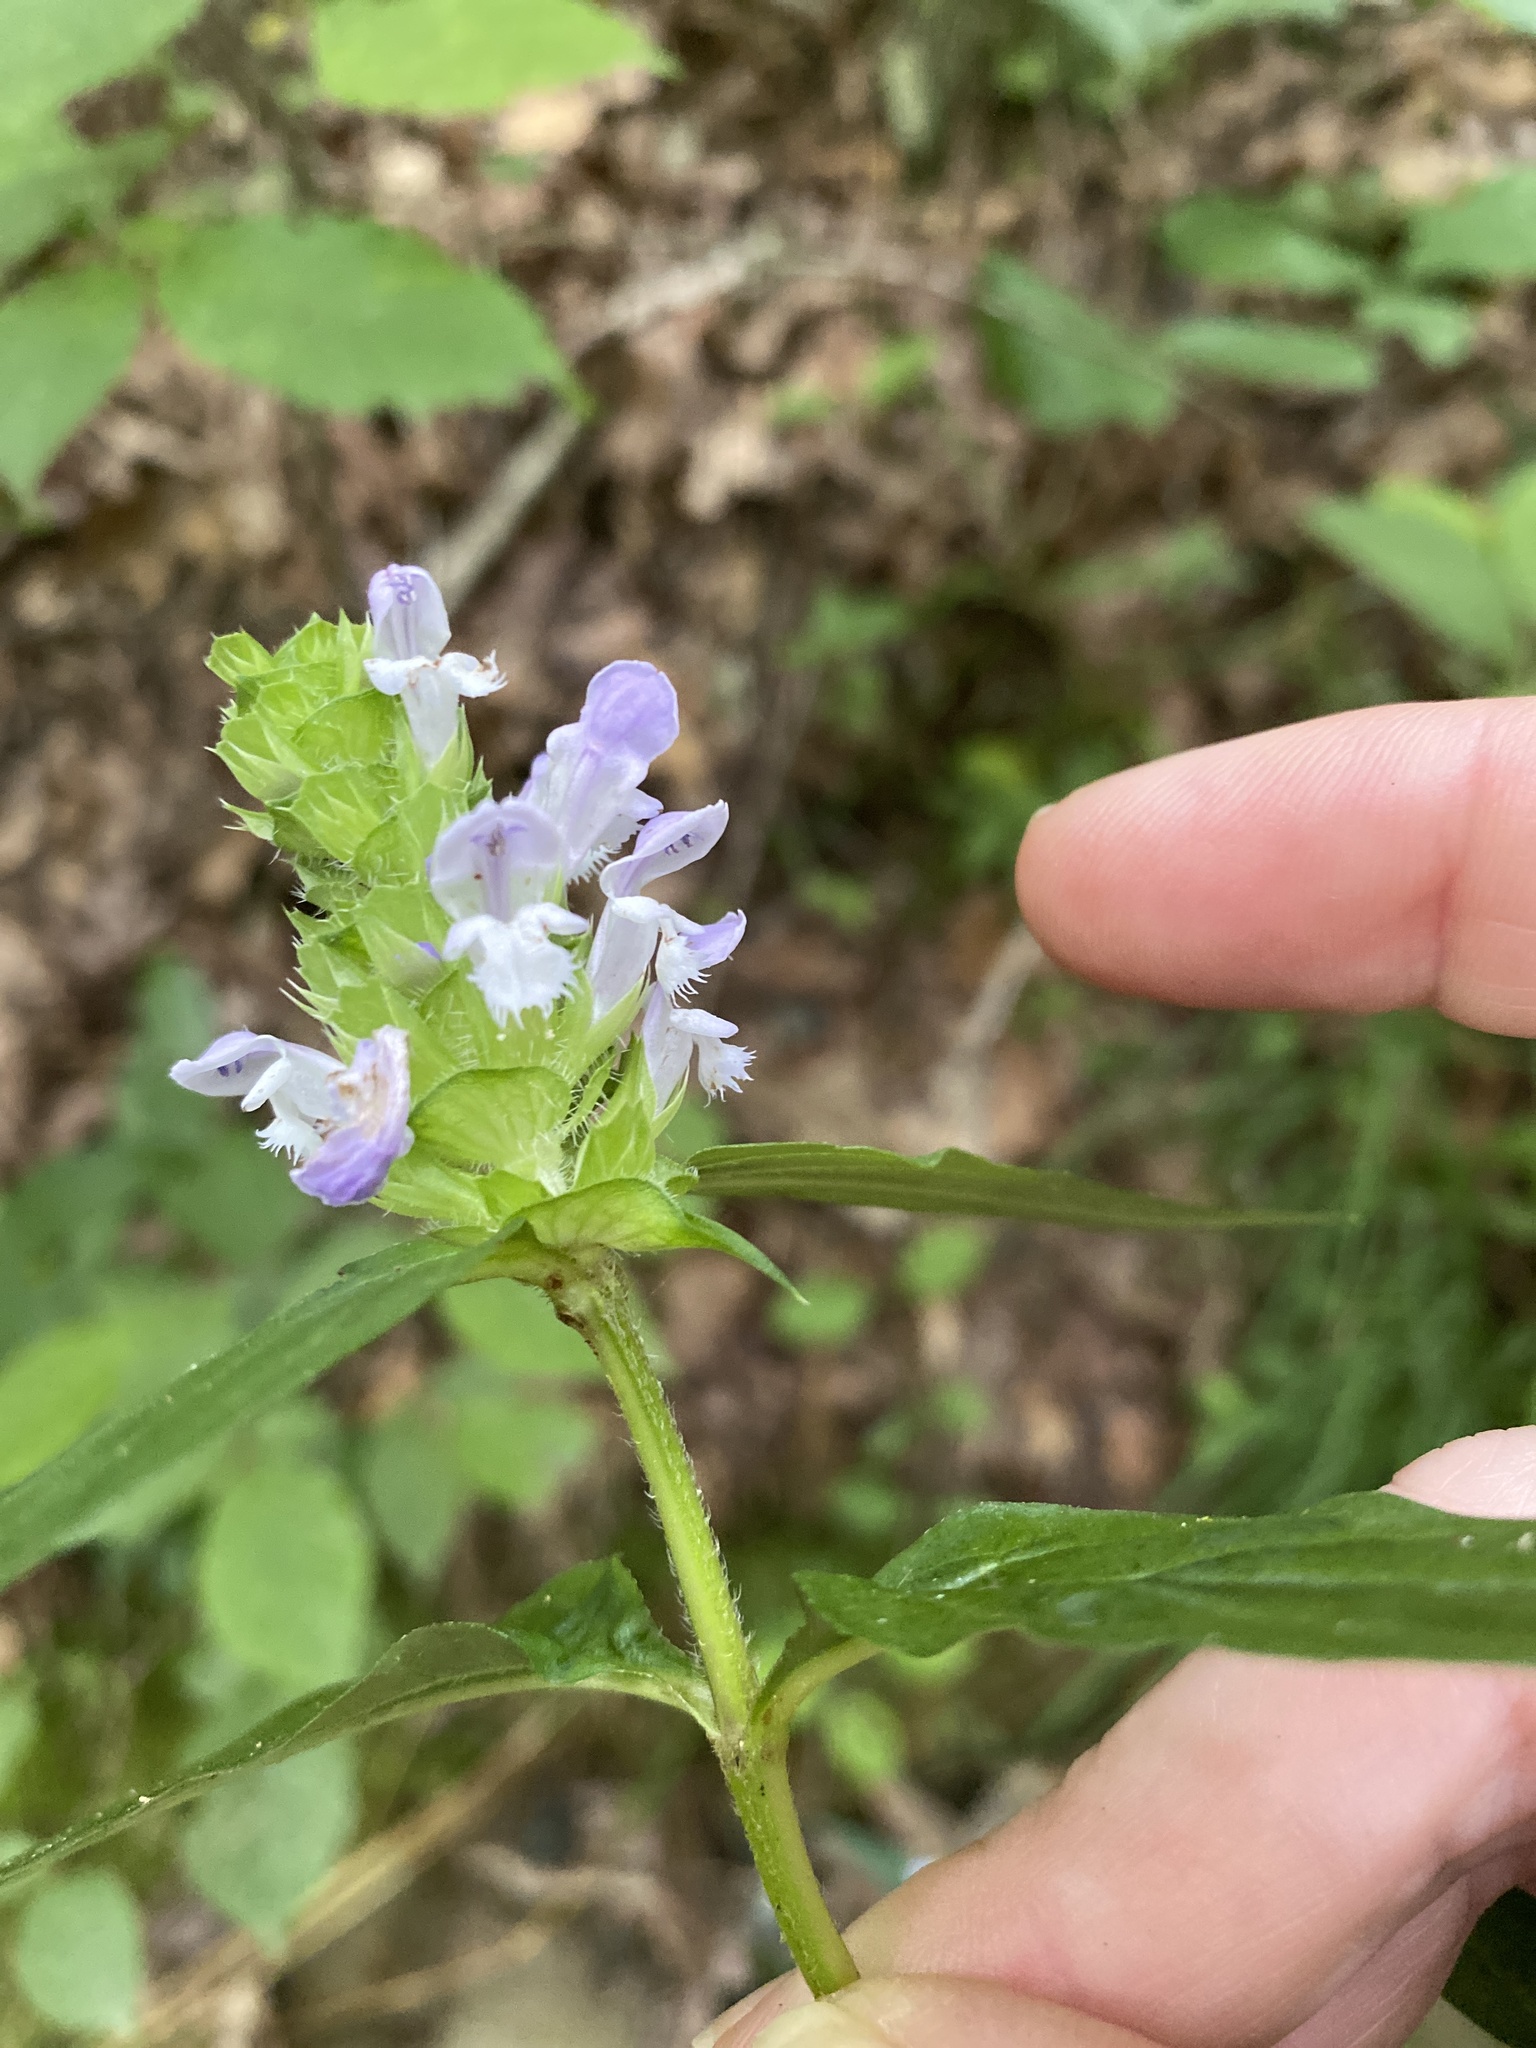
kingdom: Plantae
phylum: Tracheophyta
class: Magnoliopsida
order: Lamiales
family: Lamiaceae
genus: Prunella
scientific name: Prunella vulgaris
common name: Heal-all
